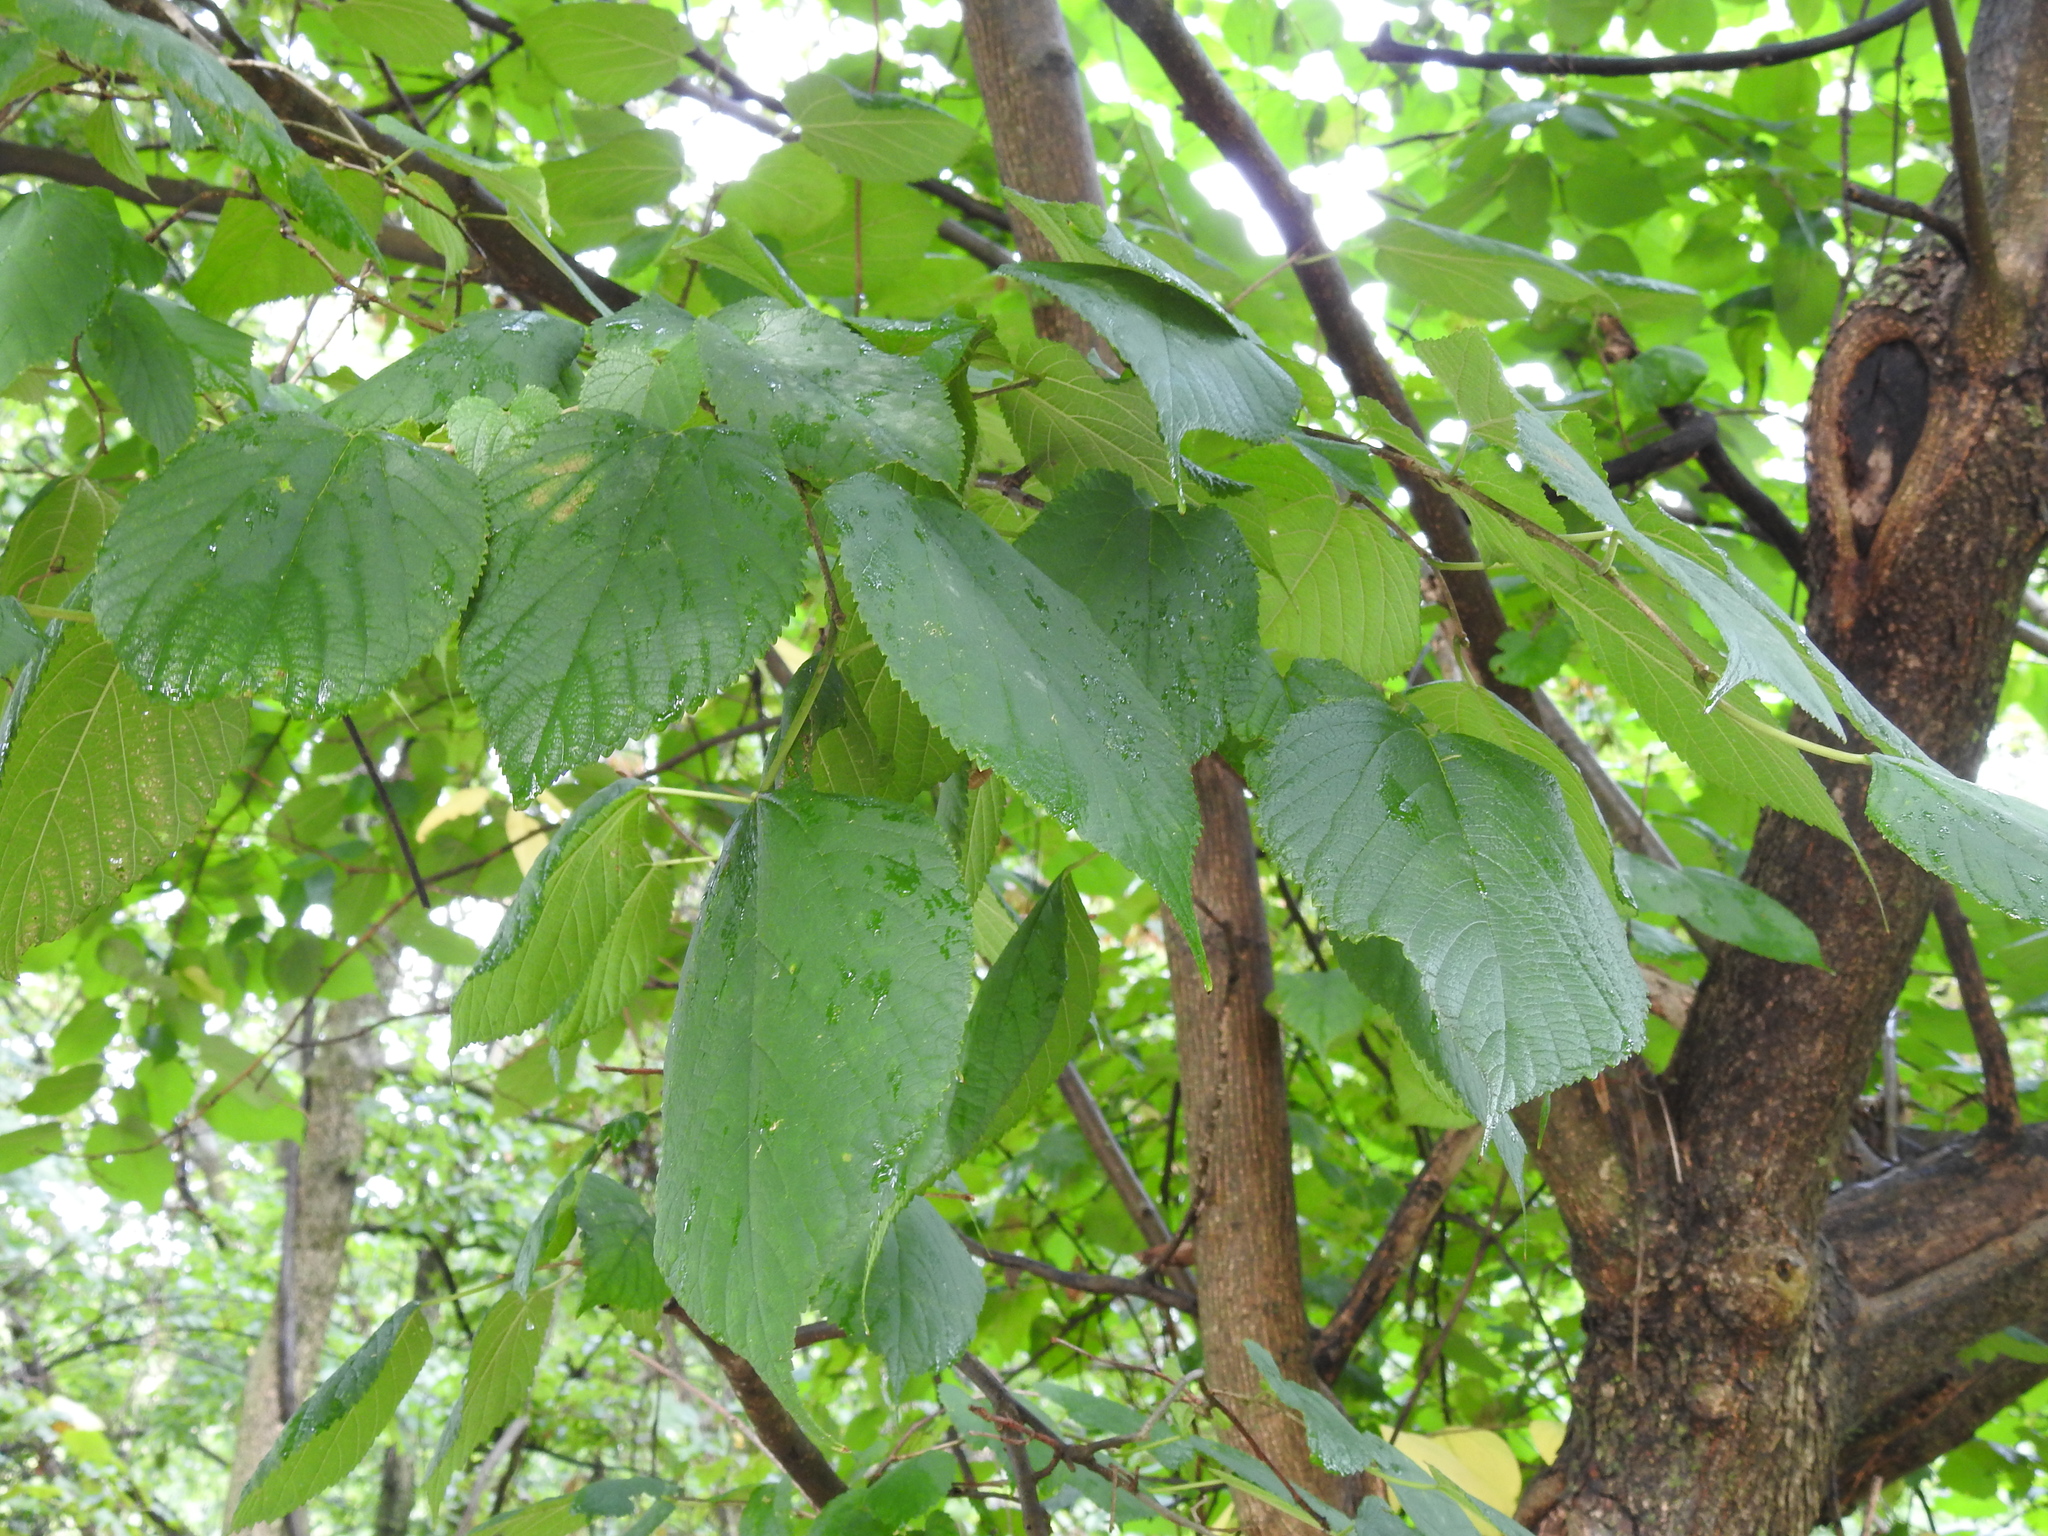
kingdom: Plantae
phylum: Tracheophyta
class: Magnoliopsida
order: Rosales
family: Moraceae
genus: Morus
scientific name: Morus rubra
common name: Red mulberry
